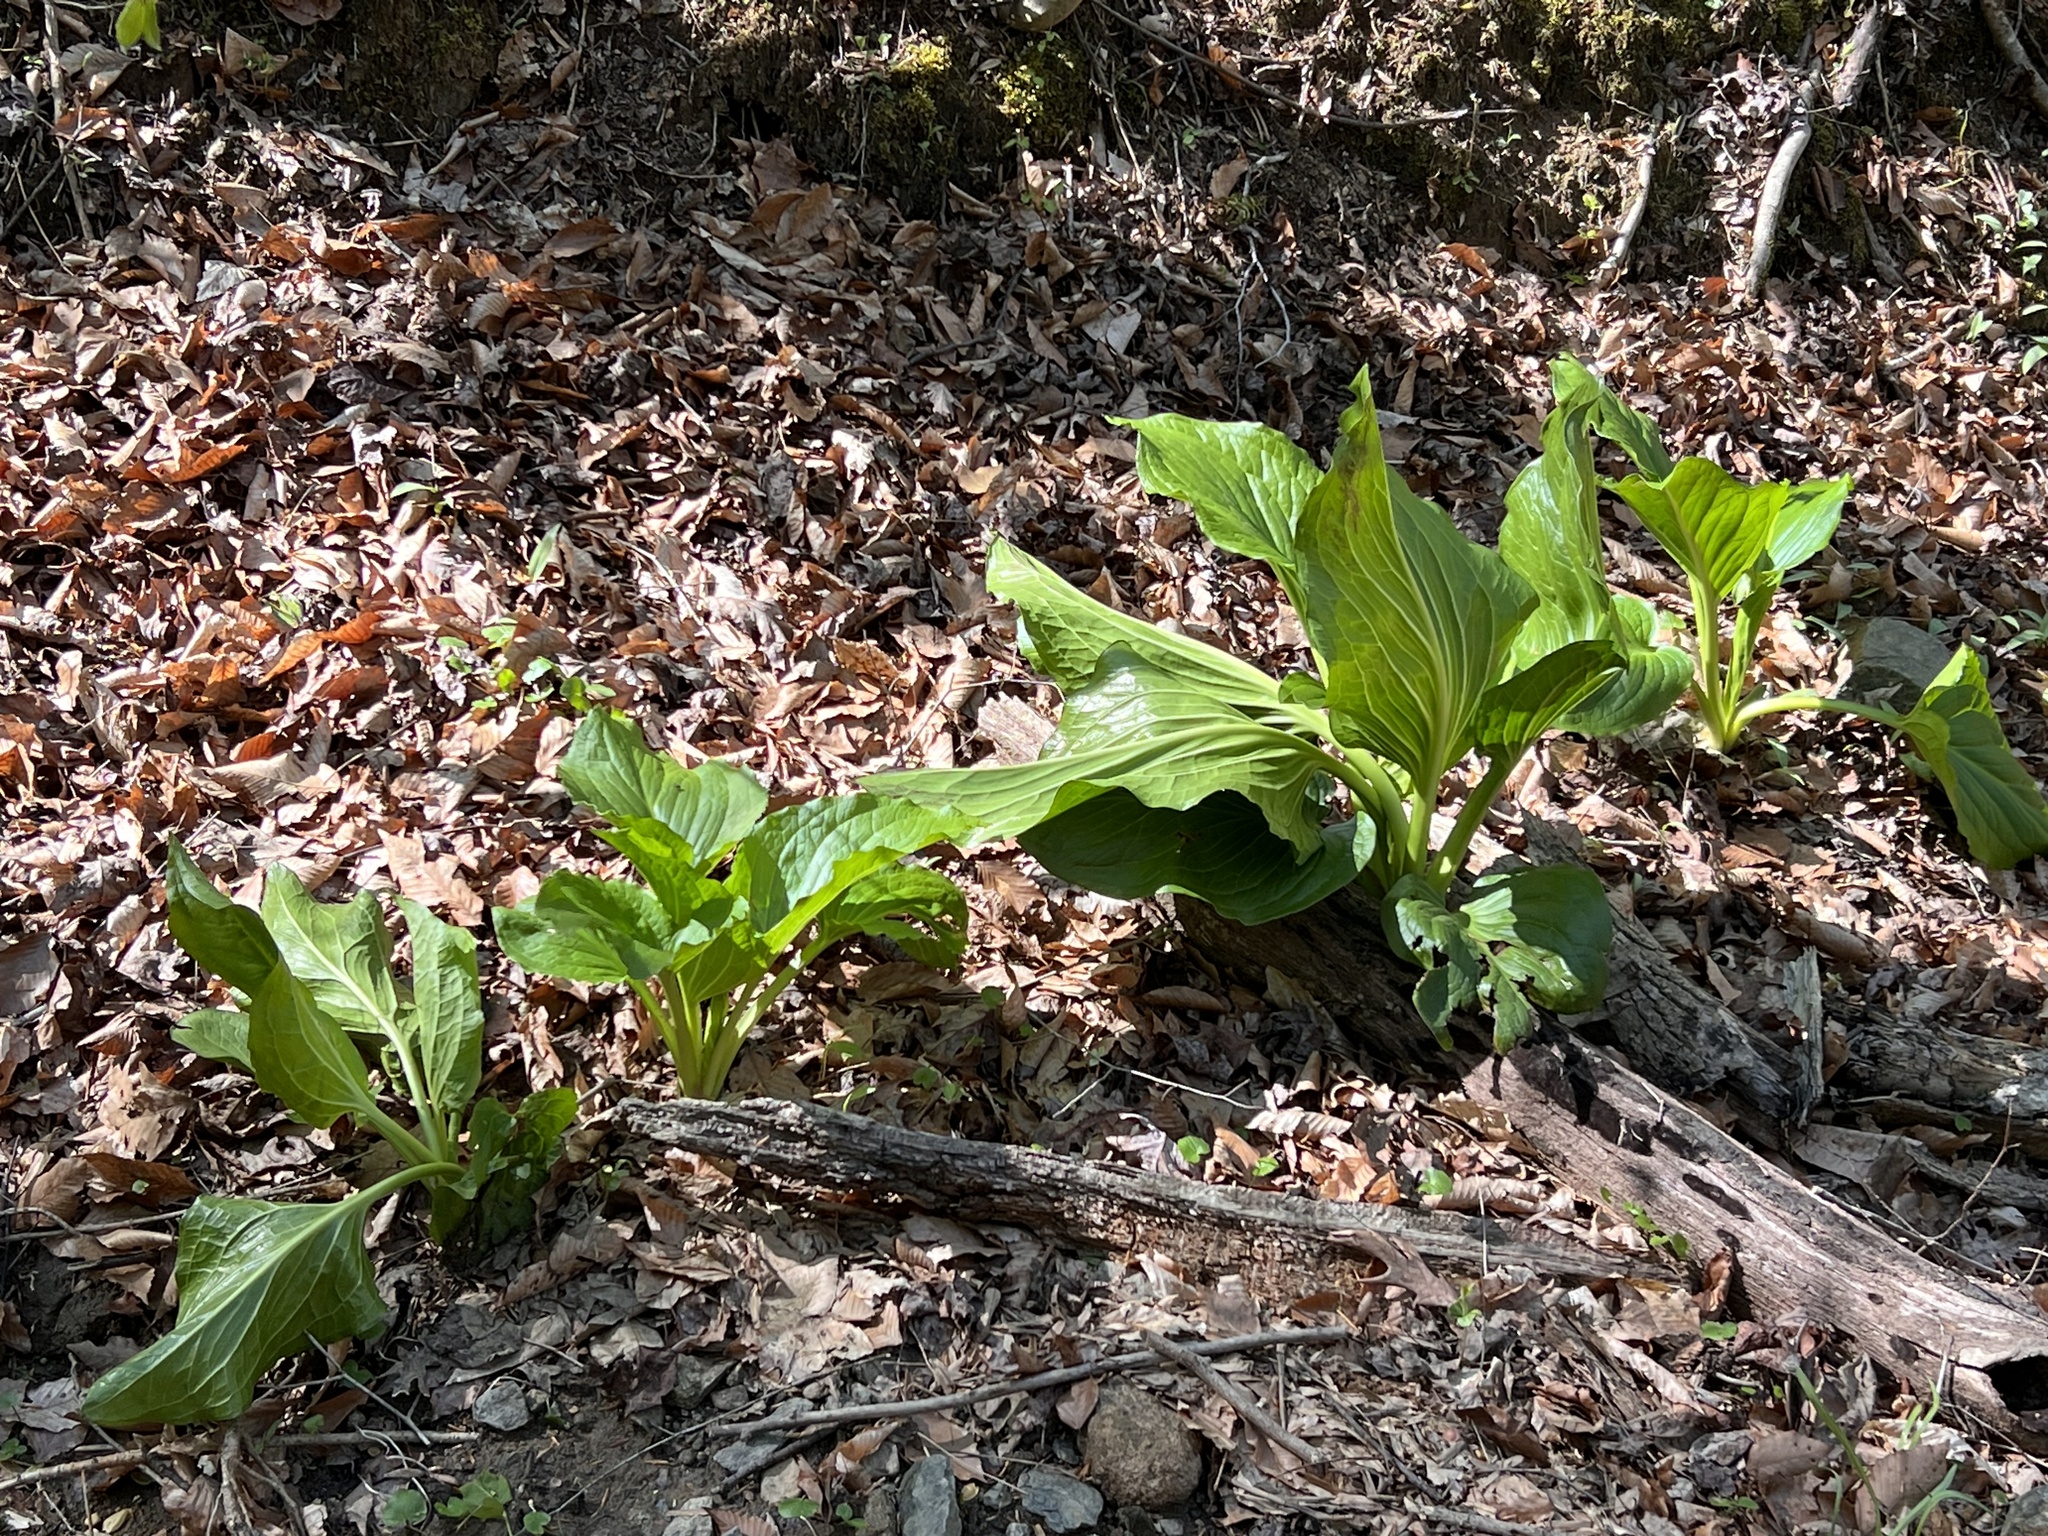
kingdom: Plantae
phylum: Tracheophyta
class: Liliopsida
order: Alismatales
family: Araceae
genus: Symplocarpus
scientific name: Symplocarpus foetidus
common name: Eastern skunk cabbage
